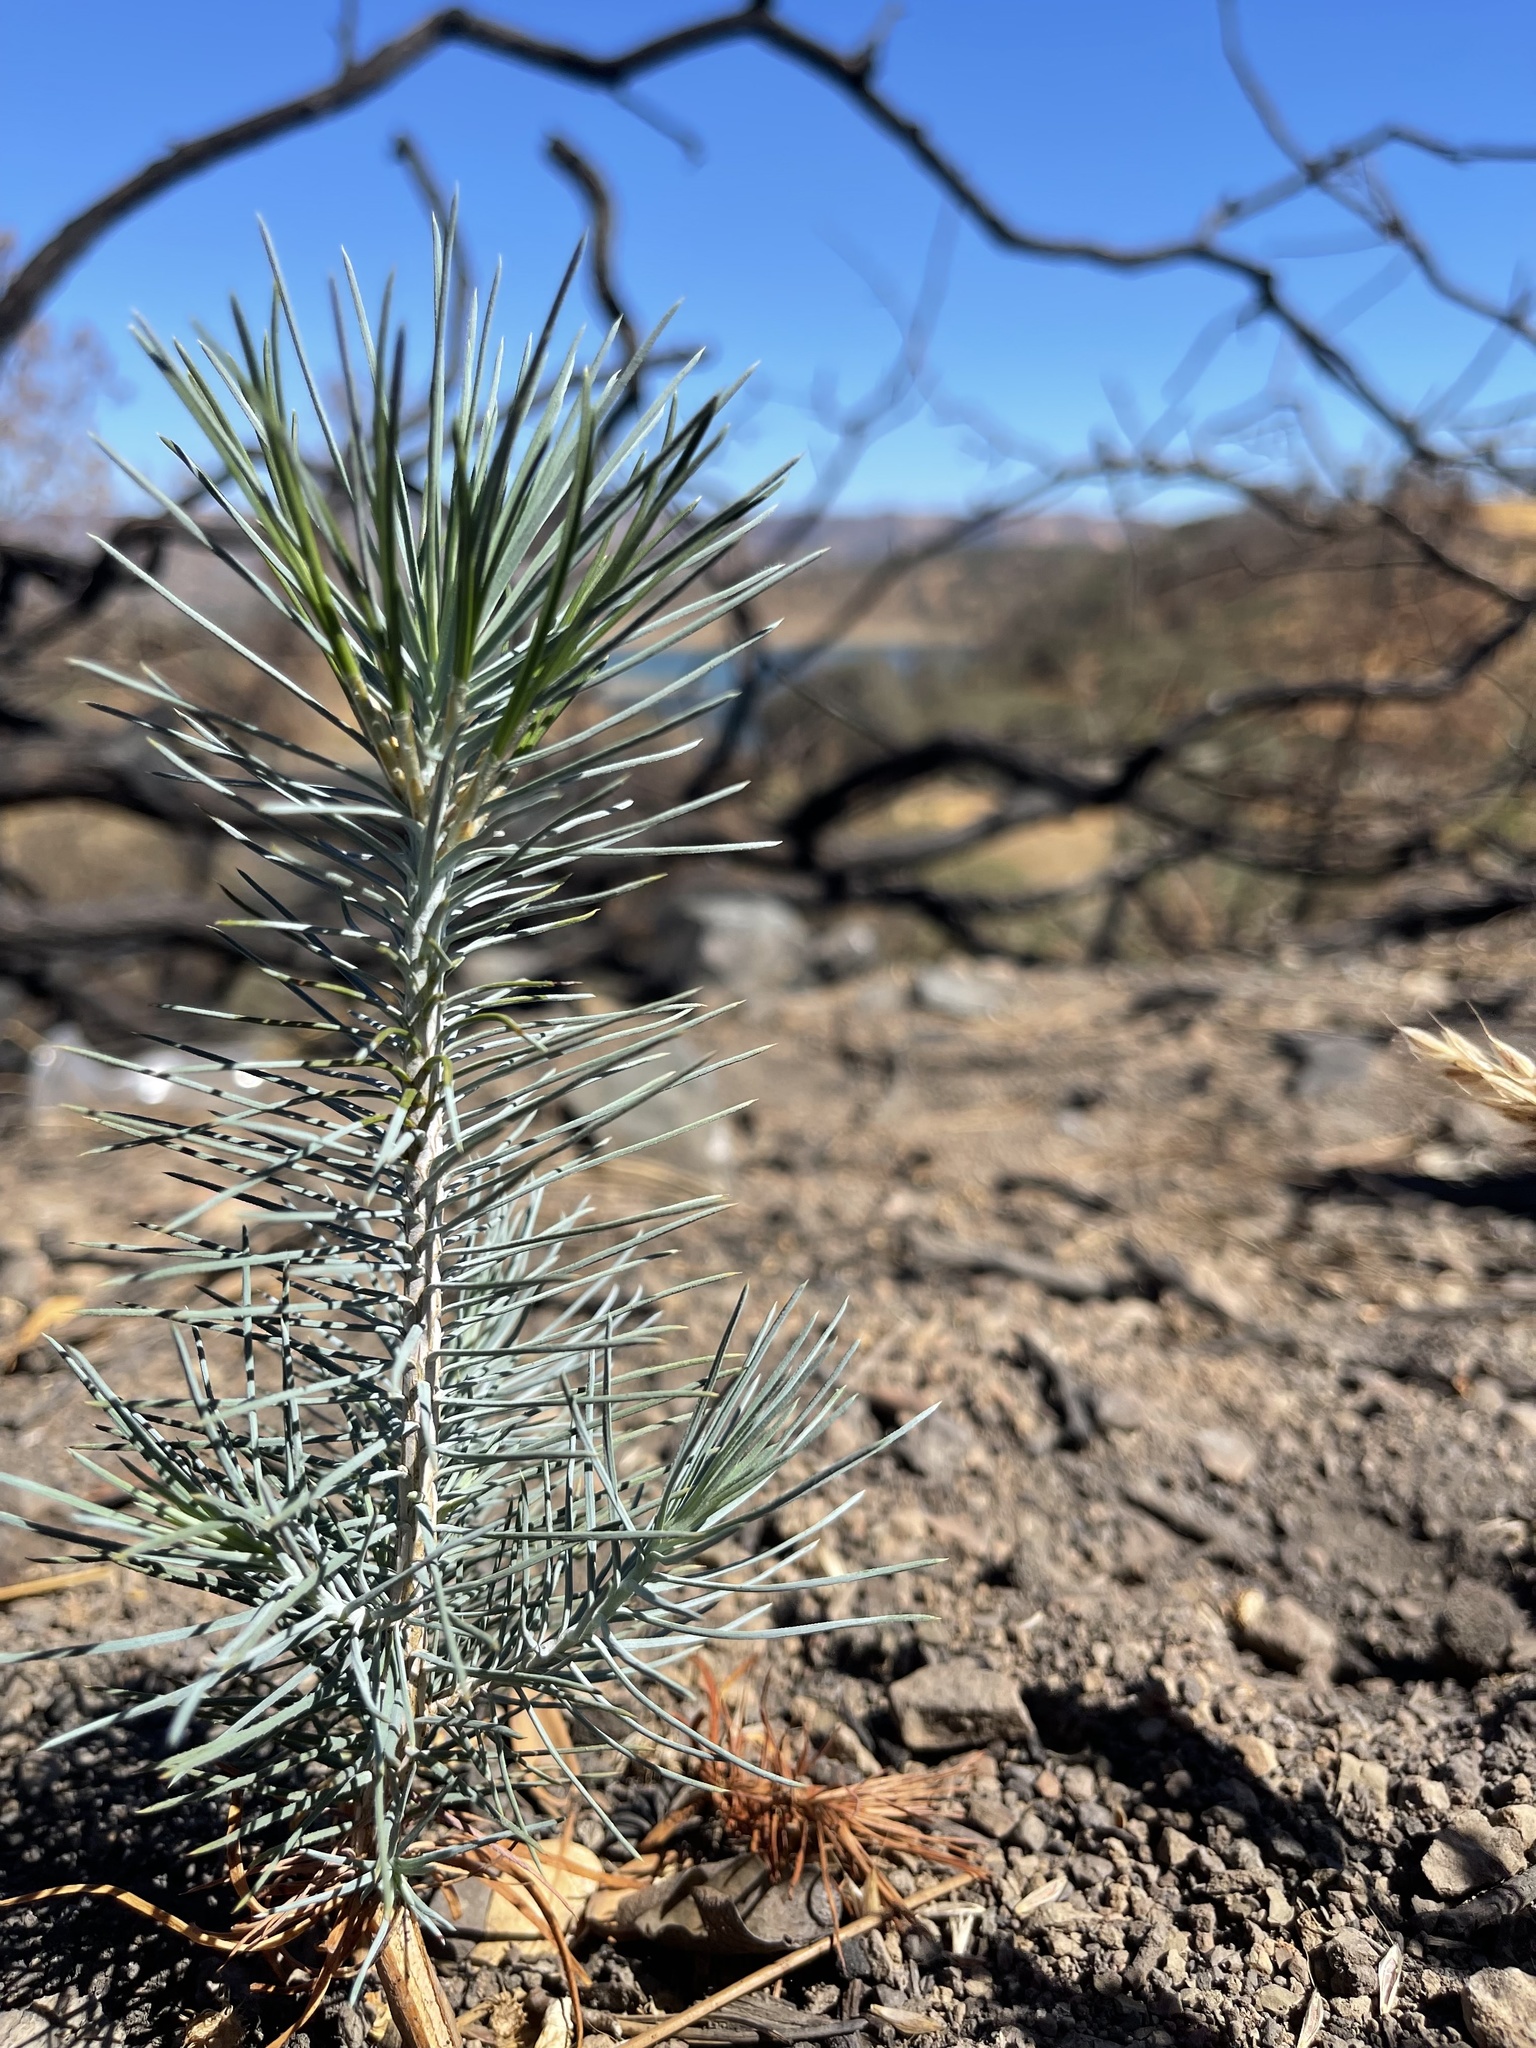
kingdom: Plantae
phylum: Tracheophyta
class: Pinopsida
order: Pinales
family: Pinaceae
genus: Pinus
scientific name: Pinus sabiniana
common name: Bull pine
